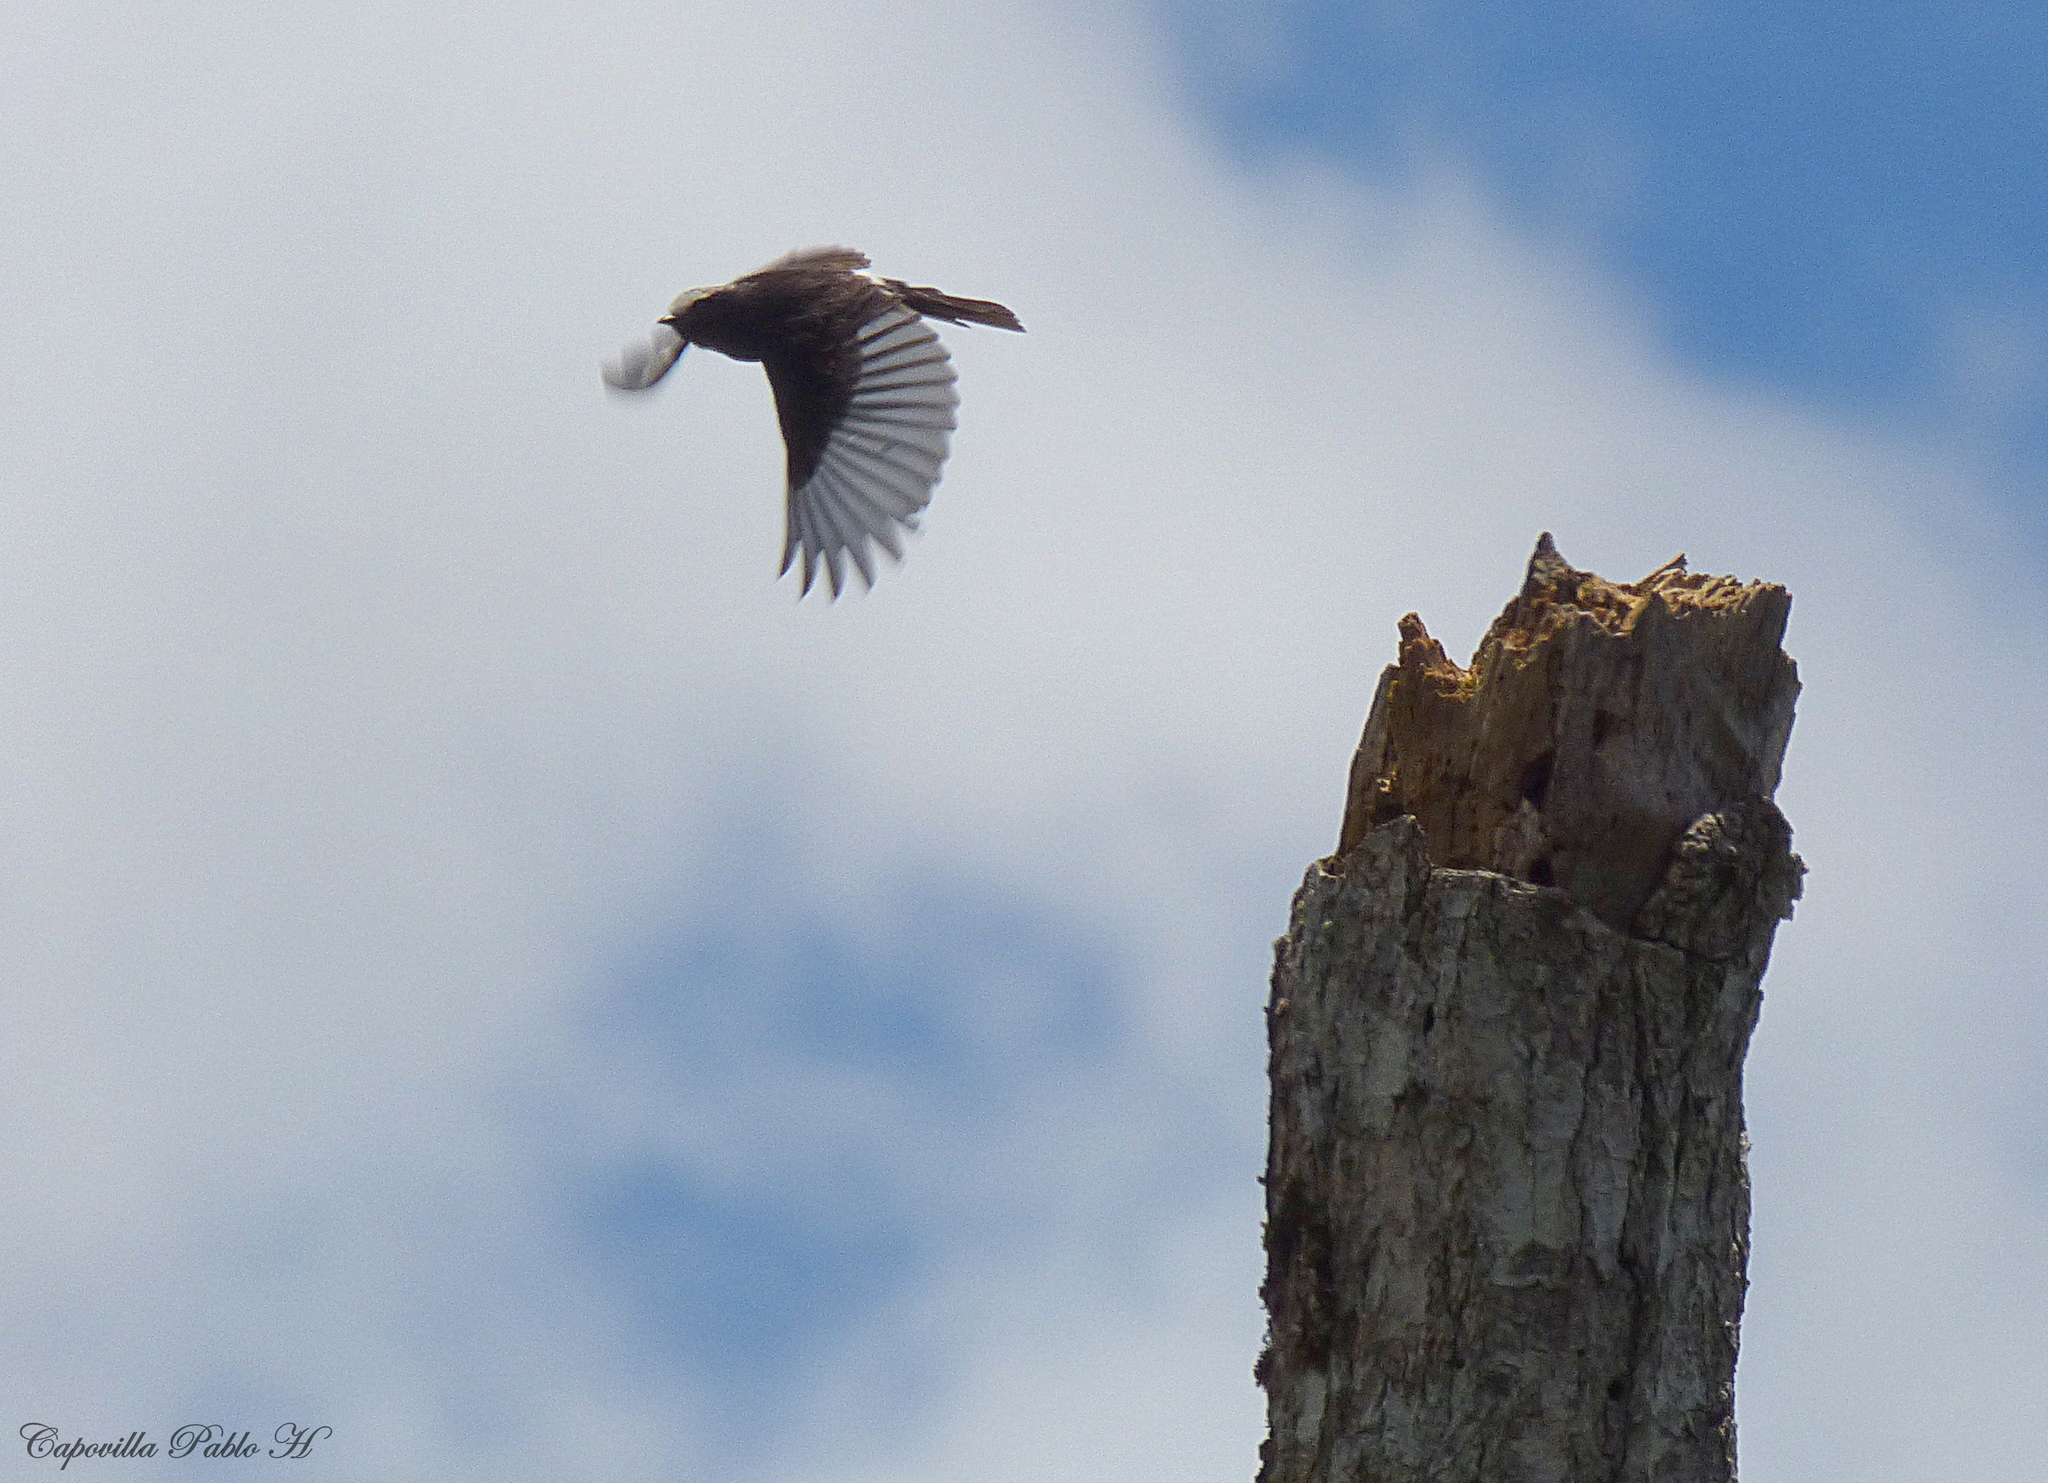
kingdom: Animalia
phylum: Chordata
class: Aves
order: Passeriformes
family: Tyrannidae
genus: Colonia
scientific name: Colonia colonus
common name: Long-tailed tyrant
